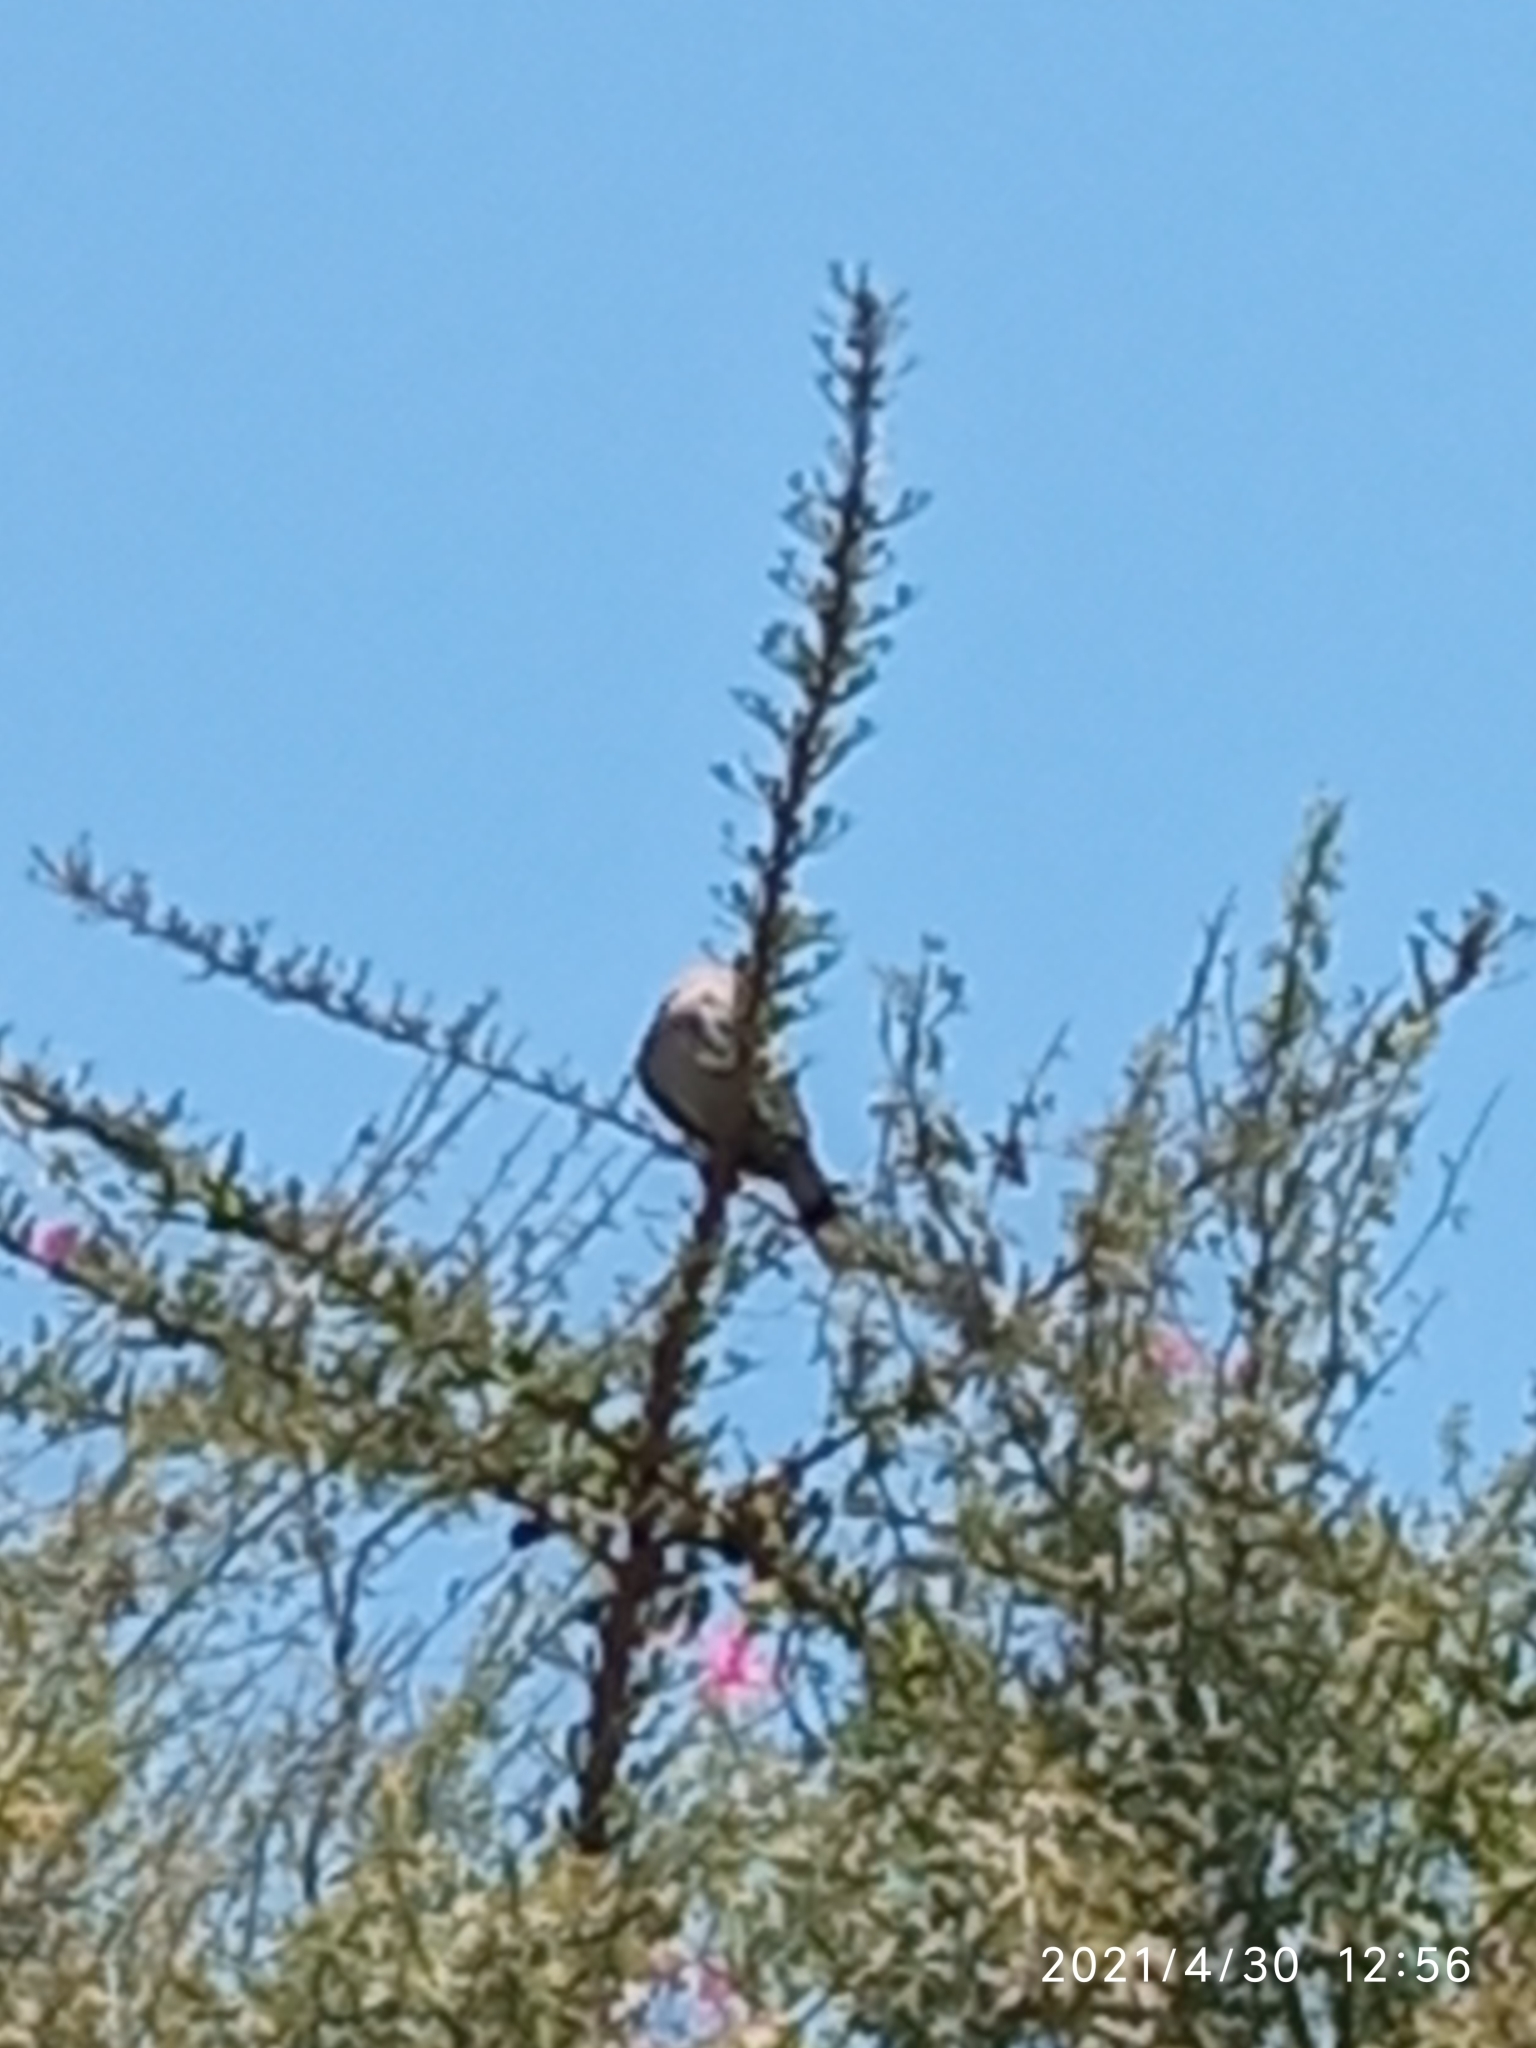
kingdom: Animalia
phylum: Chordata
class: Aves
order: Columbiformes
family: Columbidae
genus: Zenaida
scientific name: Zenaida asiatica
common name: White-winged dove
